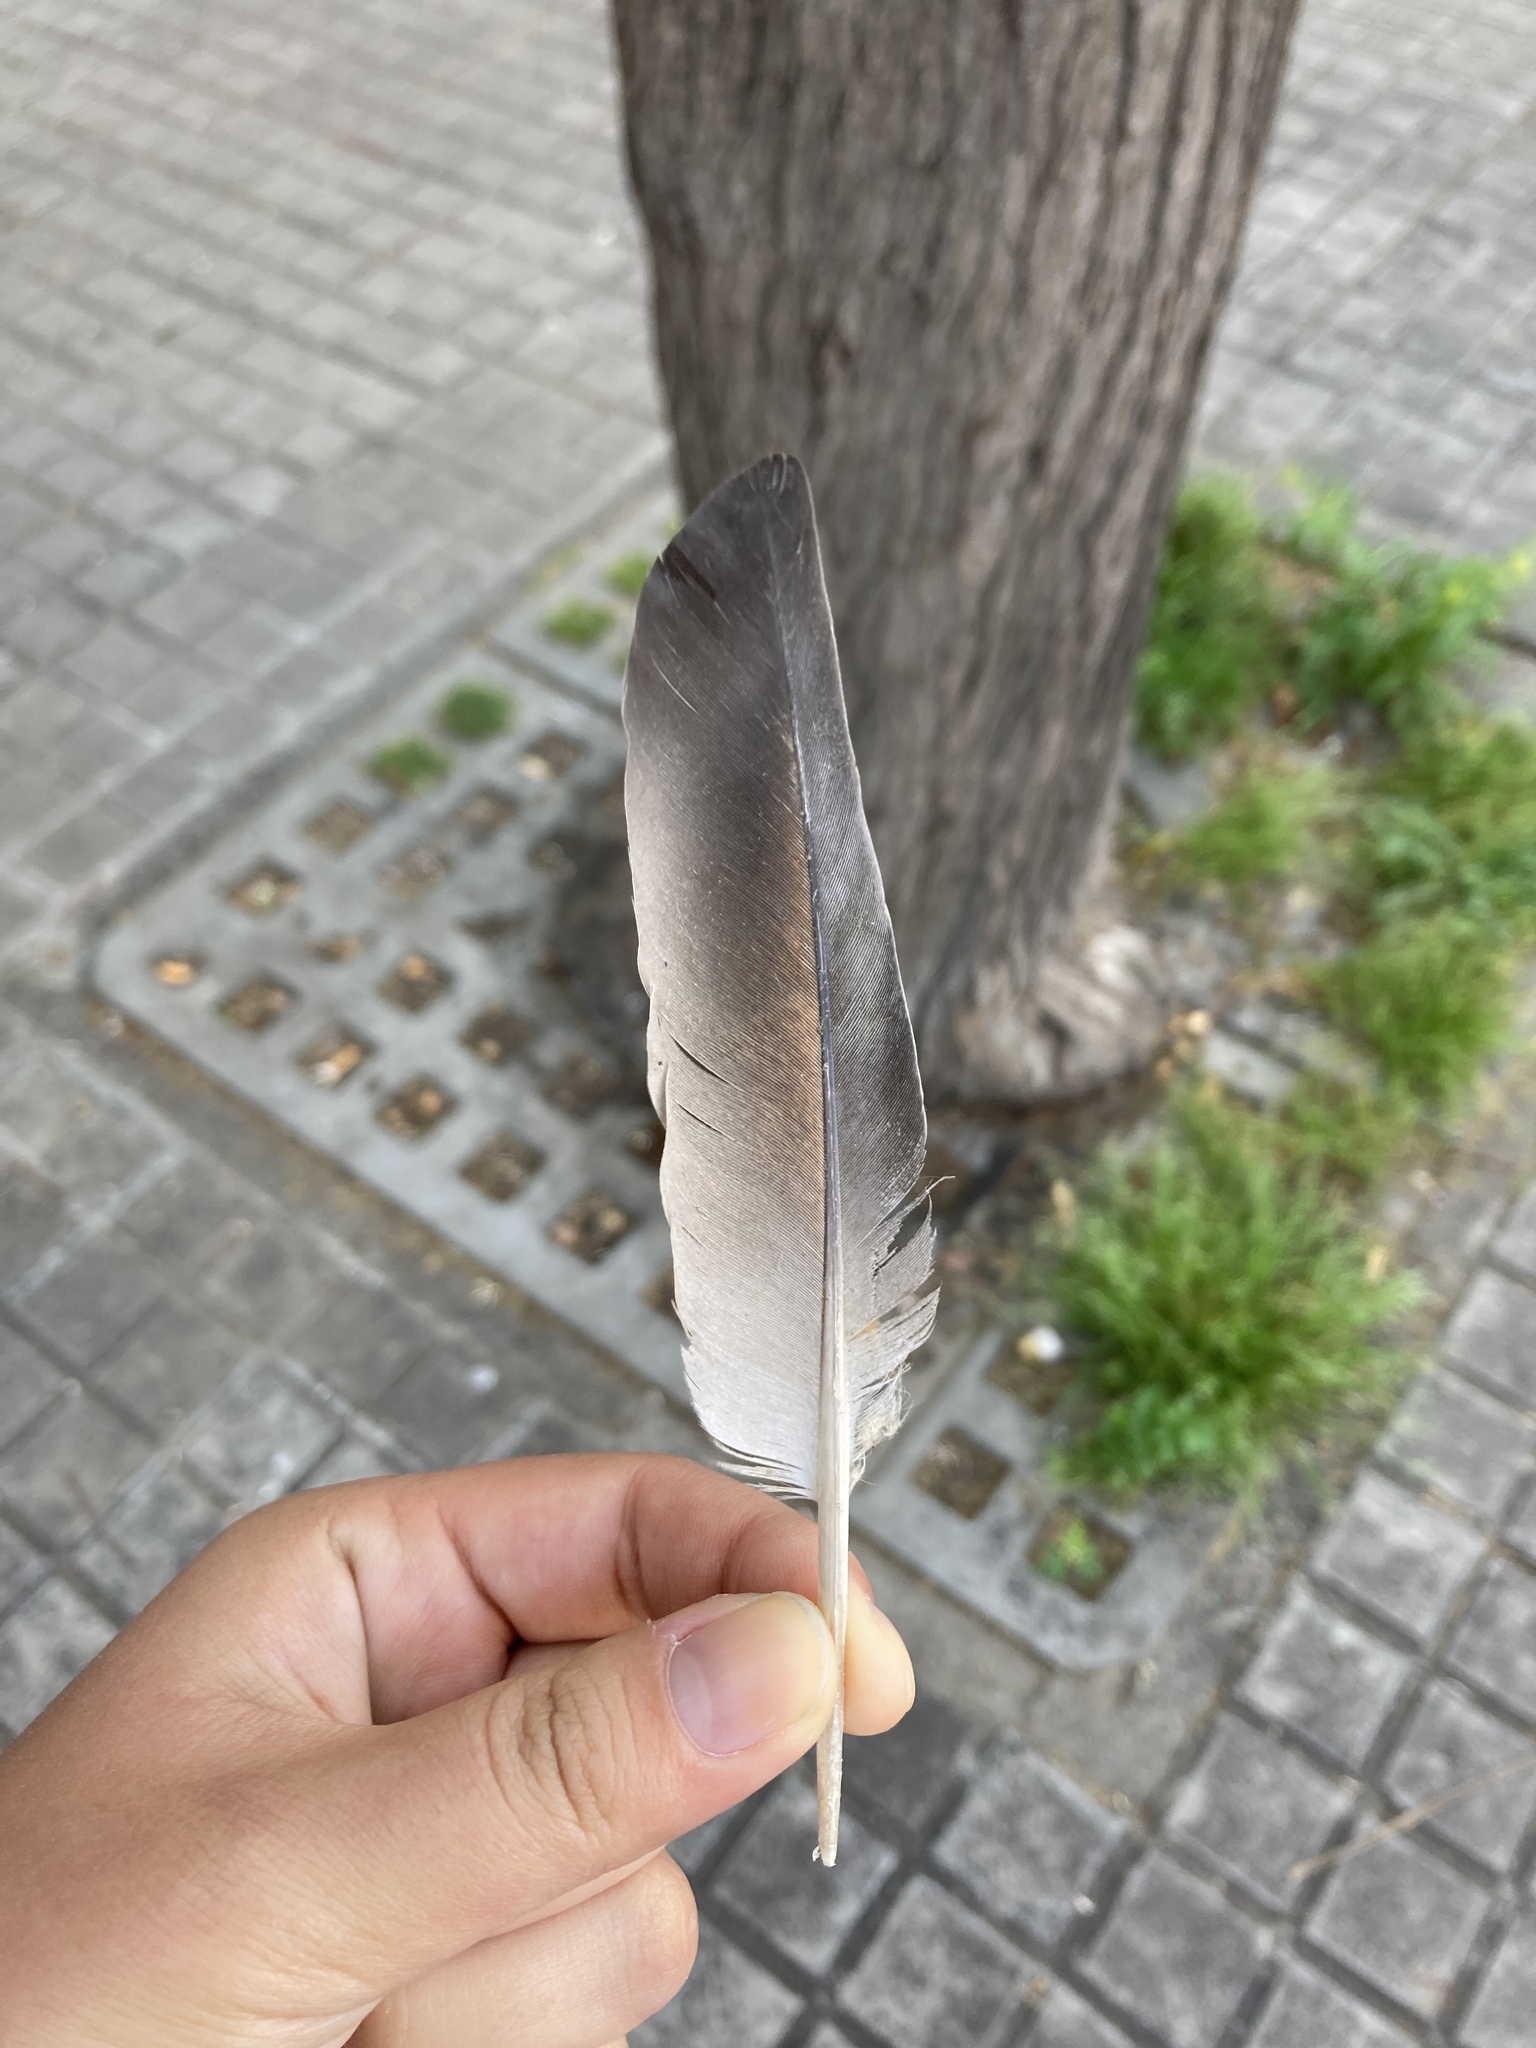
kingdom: Animalia
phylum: Chordata
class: Aves
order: Columbiformes
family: Columbidae
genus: Columba
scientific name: Columba livia
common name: Rock pigeon
